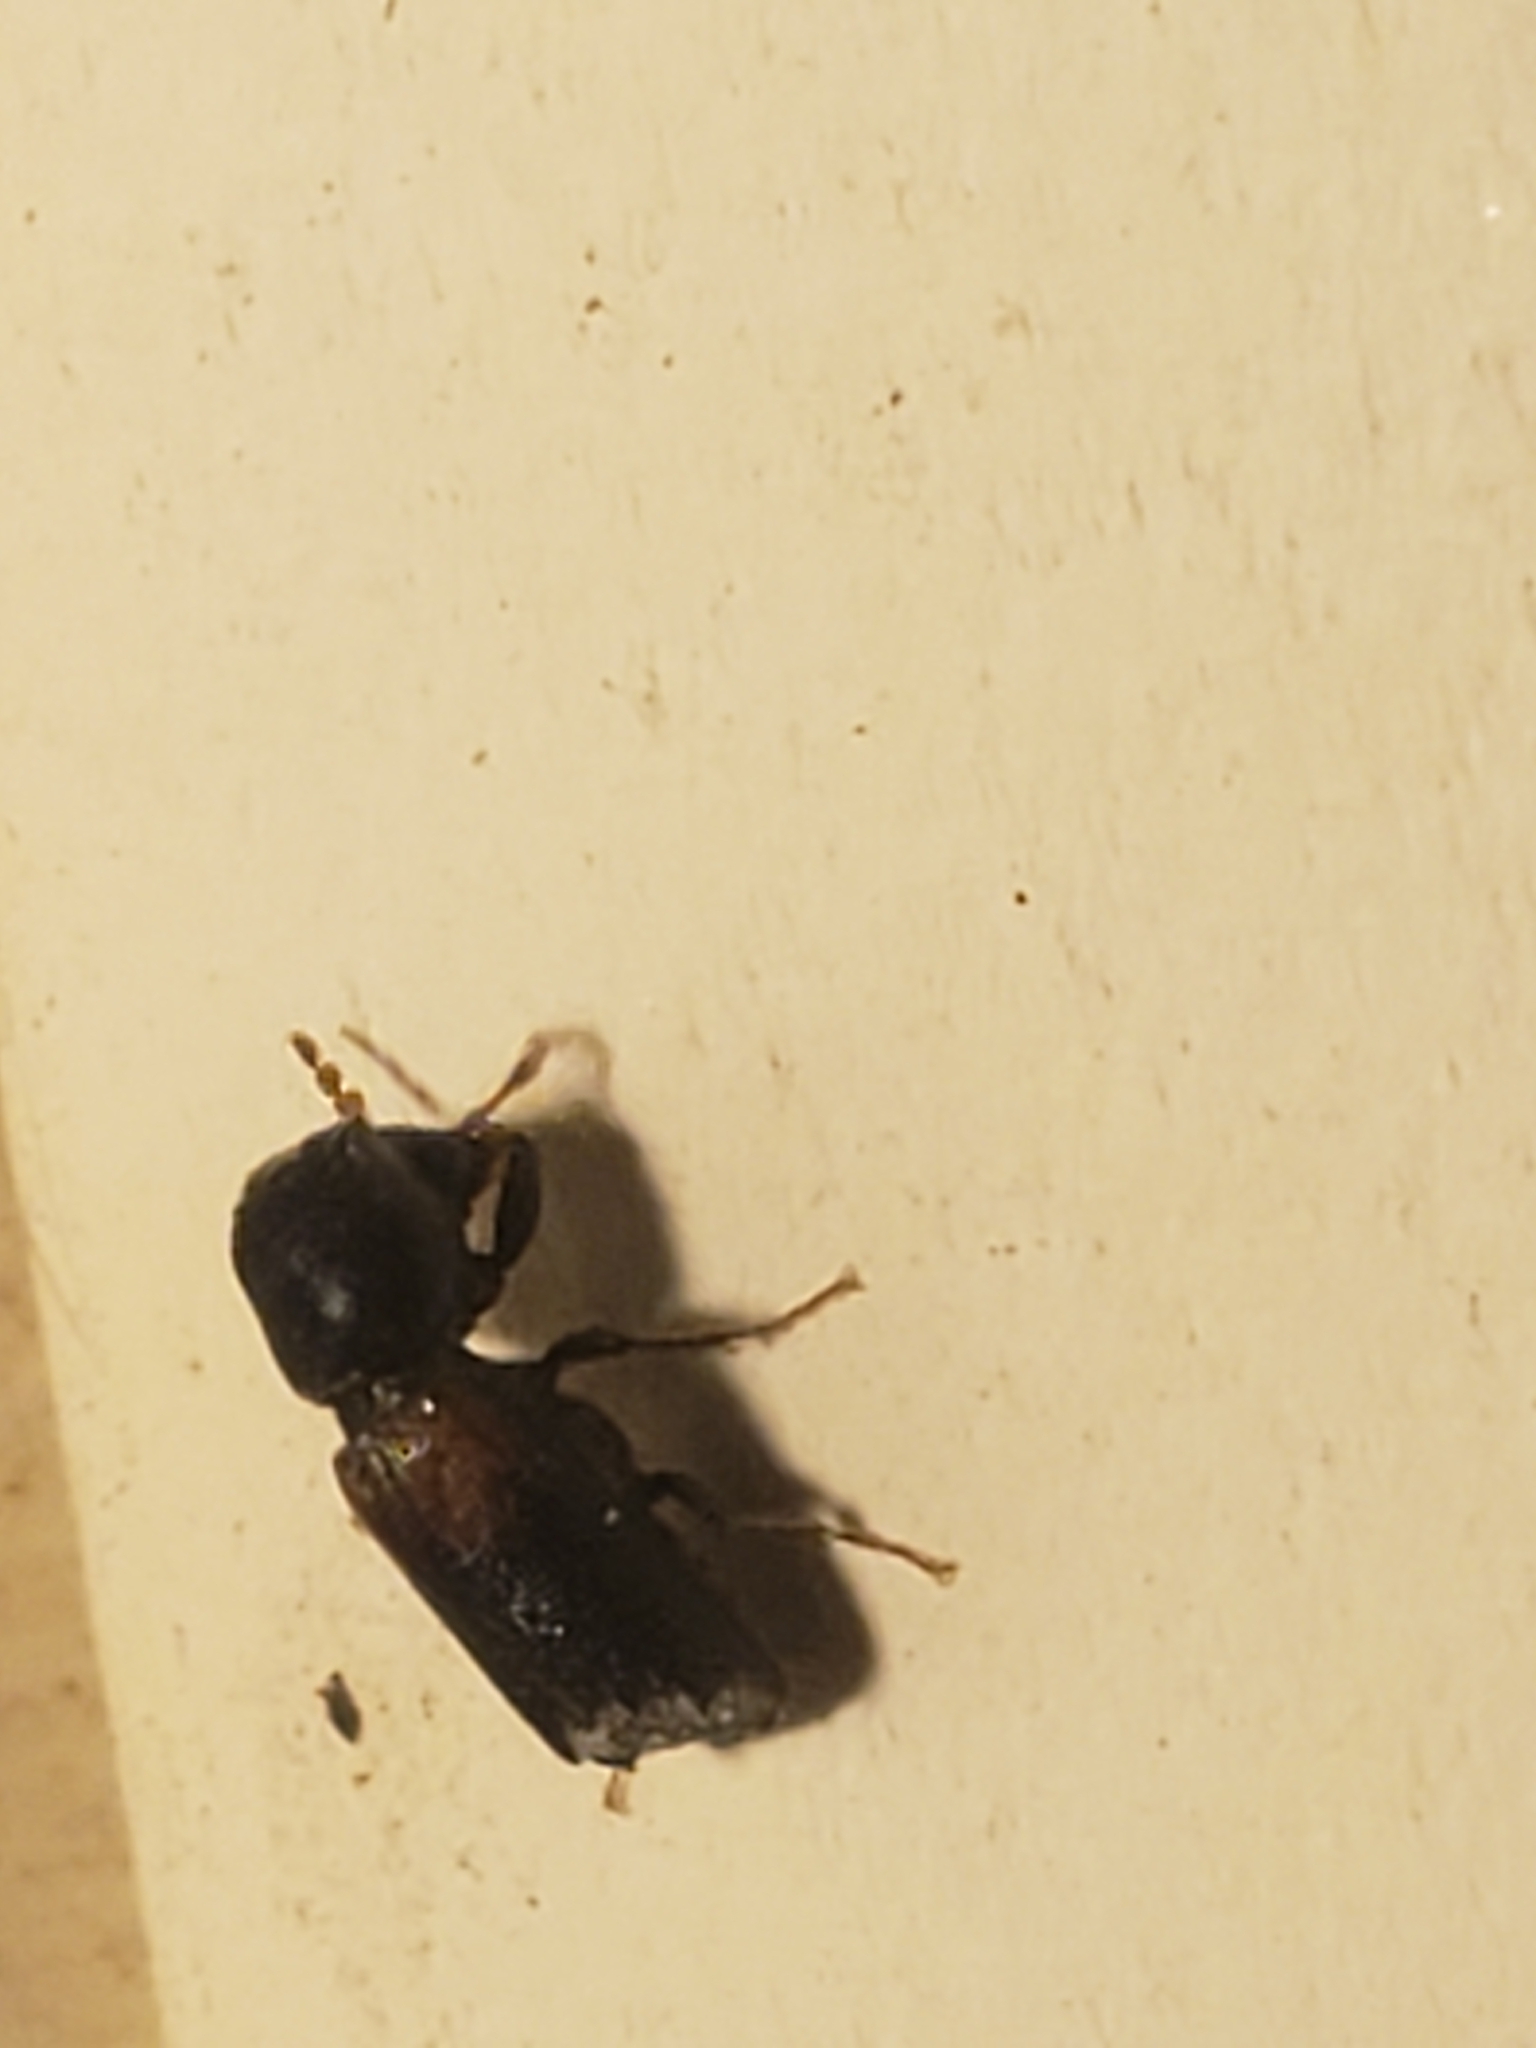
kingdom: Animalia
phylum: Arthropoda
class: Insecta
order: Coleoptera
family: Bostrichidae
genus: Xylobiops
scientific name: Xylobiops basilaris
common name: Red-shouldered bostrichid
